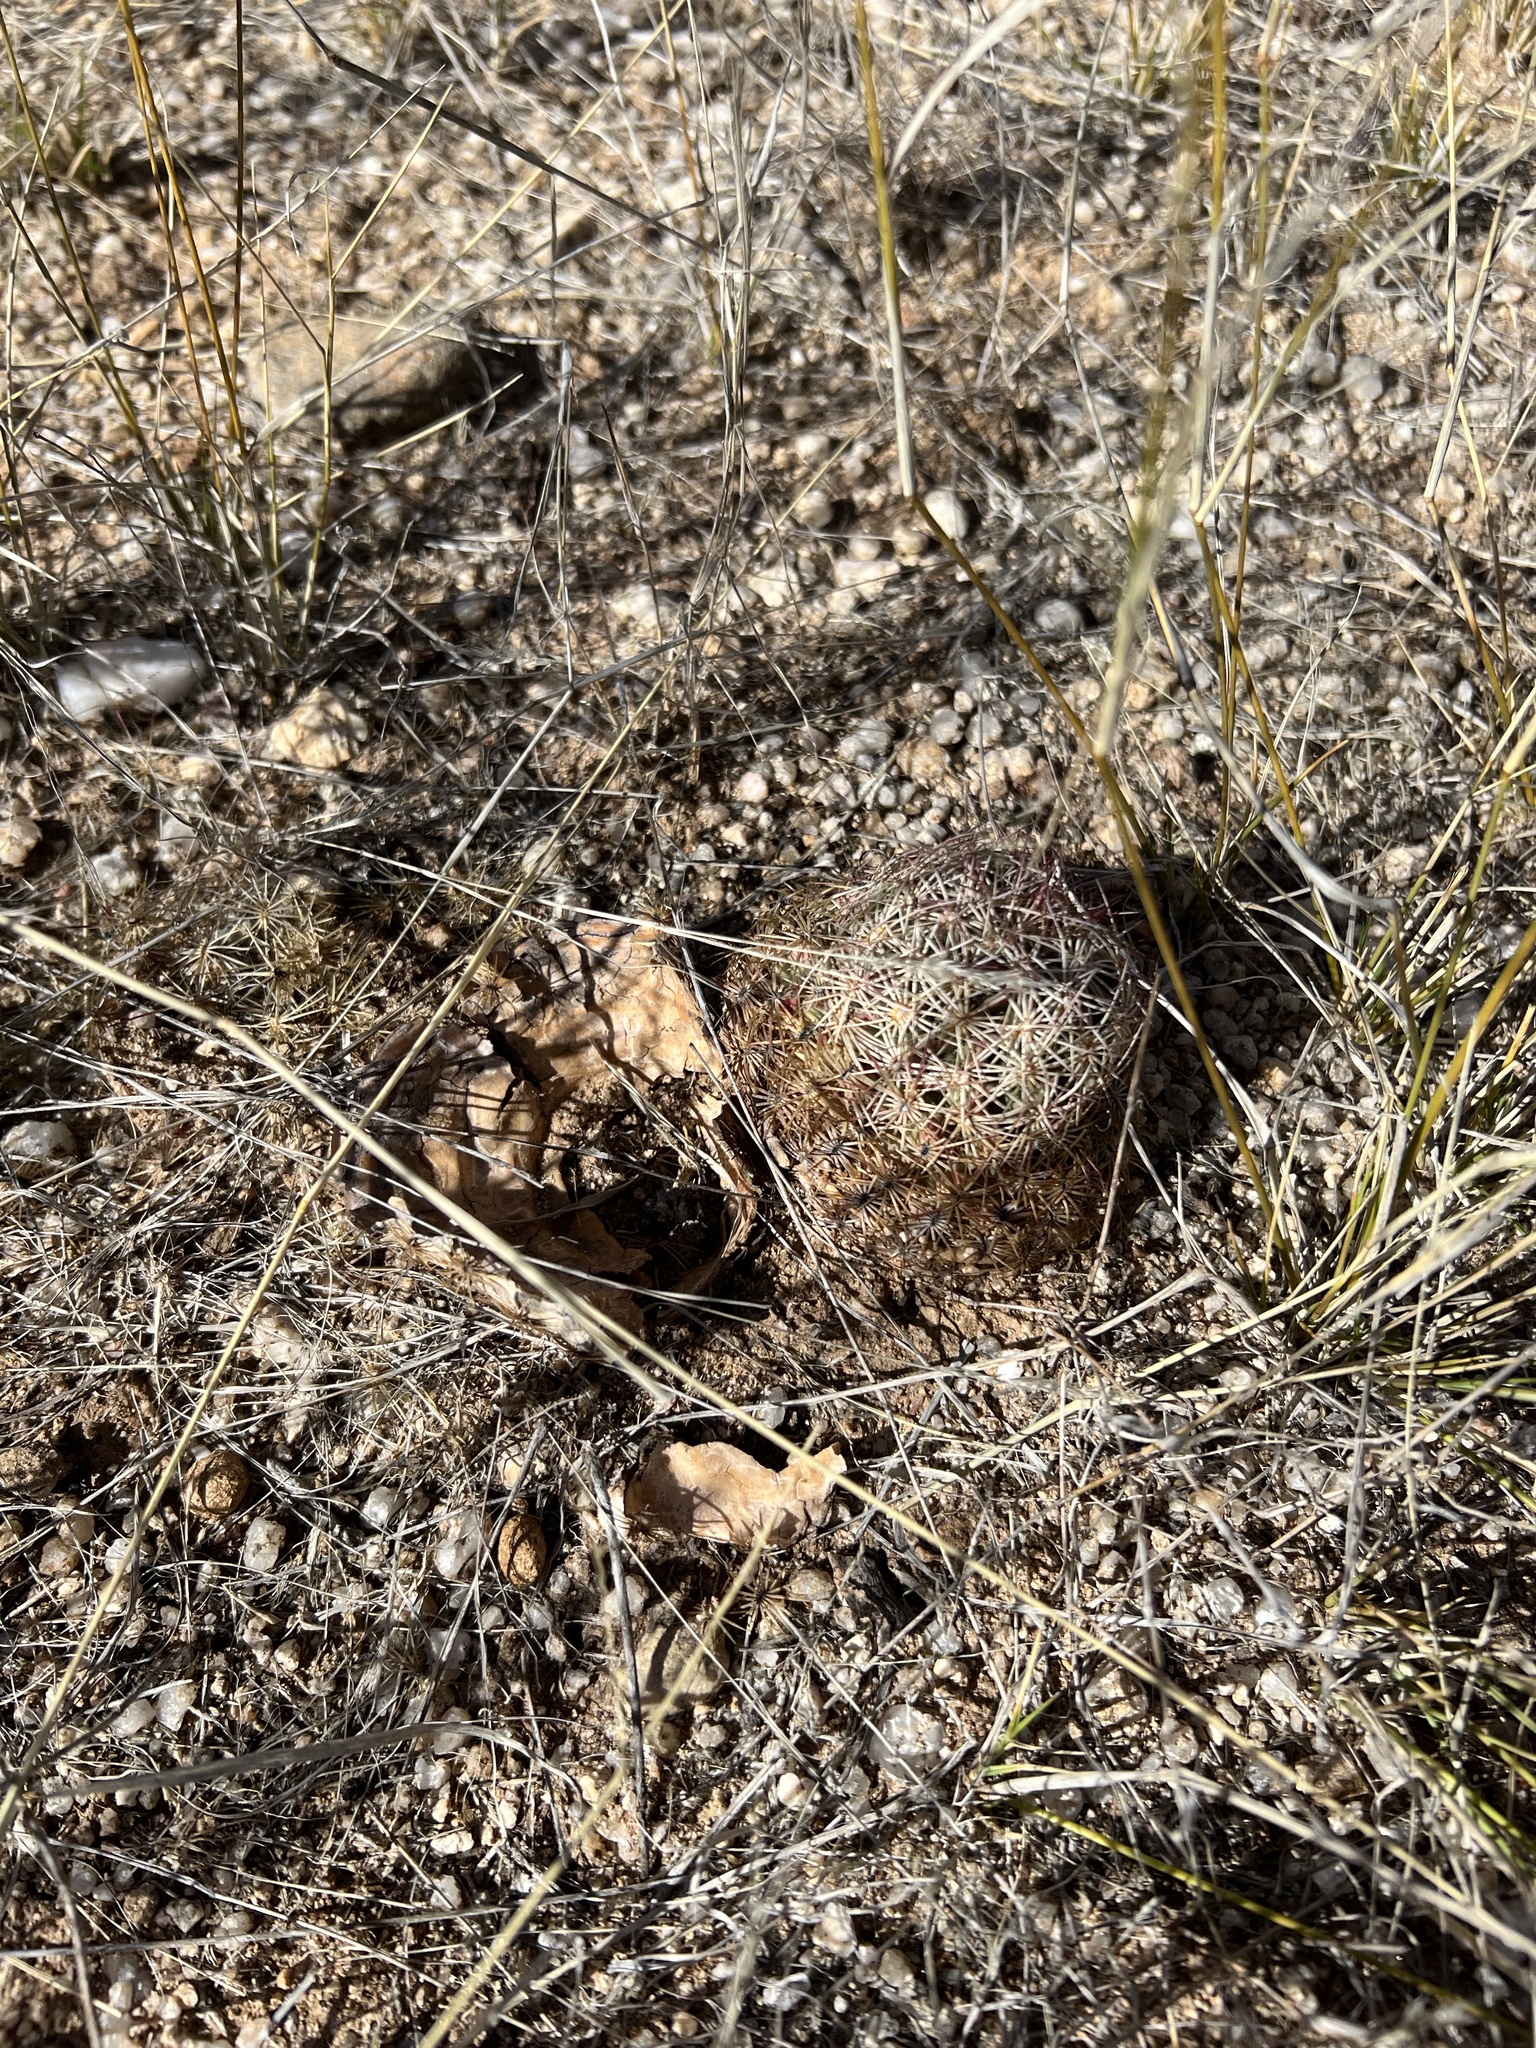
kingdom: Plantae
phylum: Tracheophyta
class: Magnoliopsida
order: Caryophyllales
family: Cactaceae
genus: Sclerocactus
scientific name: Sclerocactus johnsonii
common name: Eight-spine fishhook cactus
